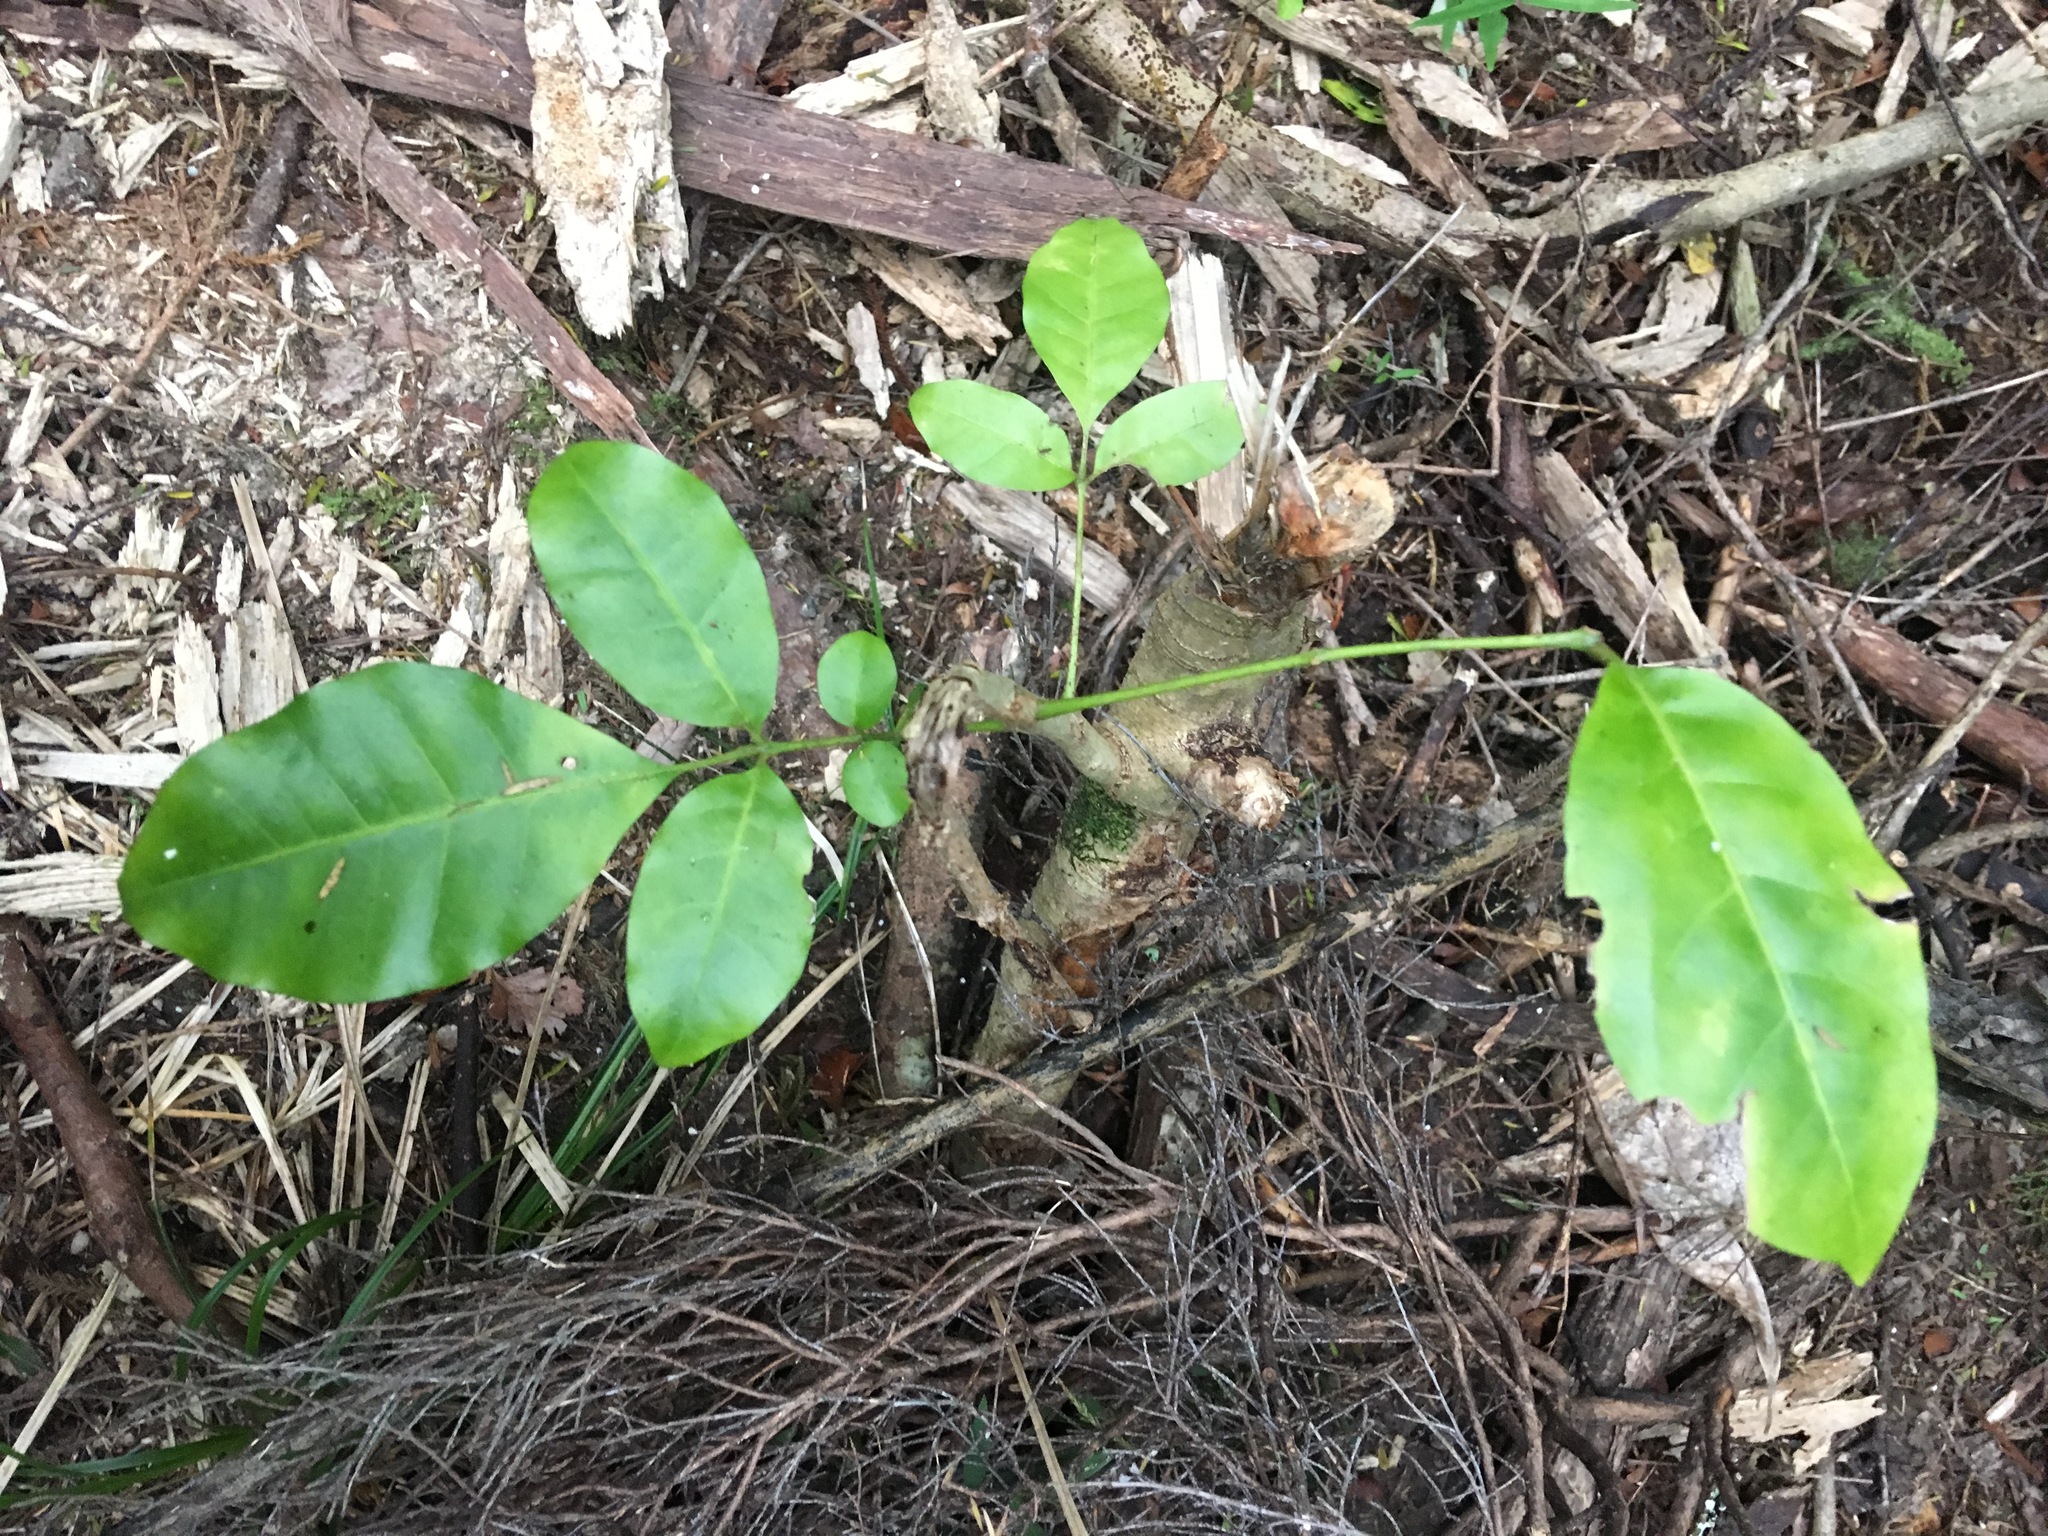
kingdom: Plantae
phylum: Tracheophyta
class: Magnoliopsida
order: Sapindales
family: Meliaceae
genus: Didymocheton
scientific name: Didymocheton spectabilis
